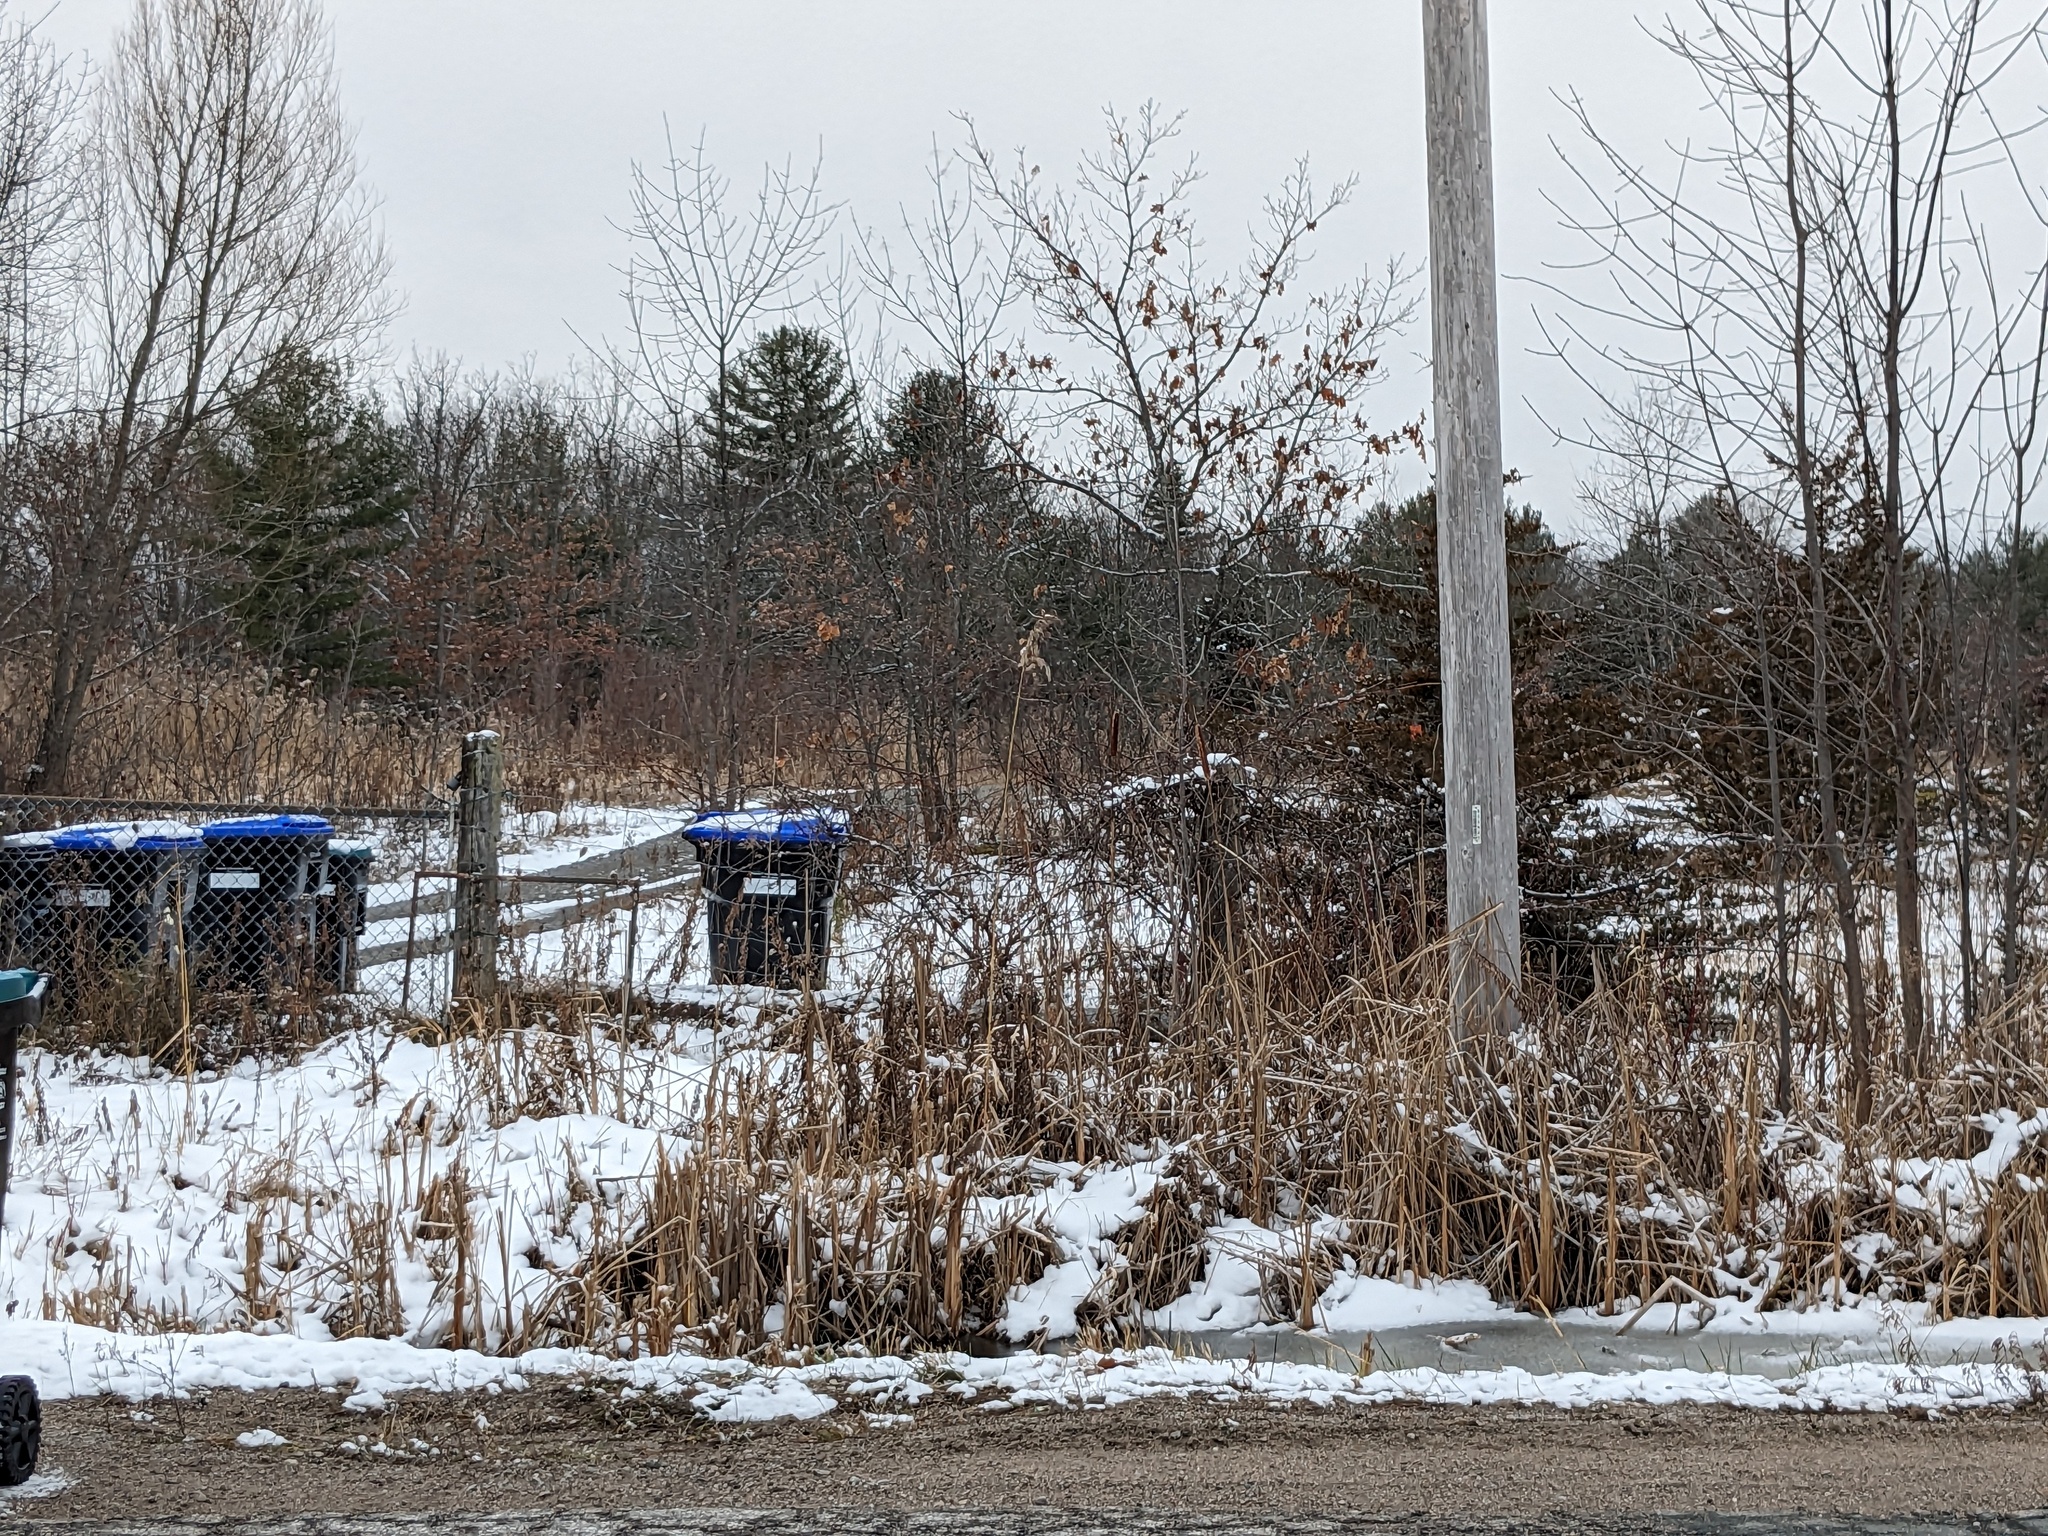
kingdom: Plantae
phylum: Tracheophyta
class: Liliopsida
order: Poales
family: Poaceae
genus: Phragmites
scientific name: Phragmites australis
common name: Common reed
